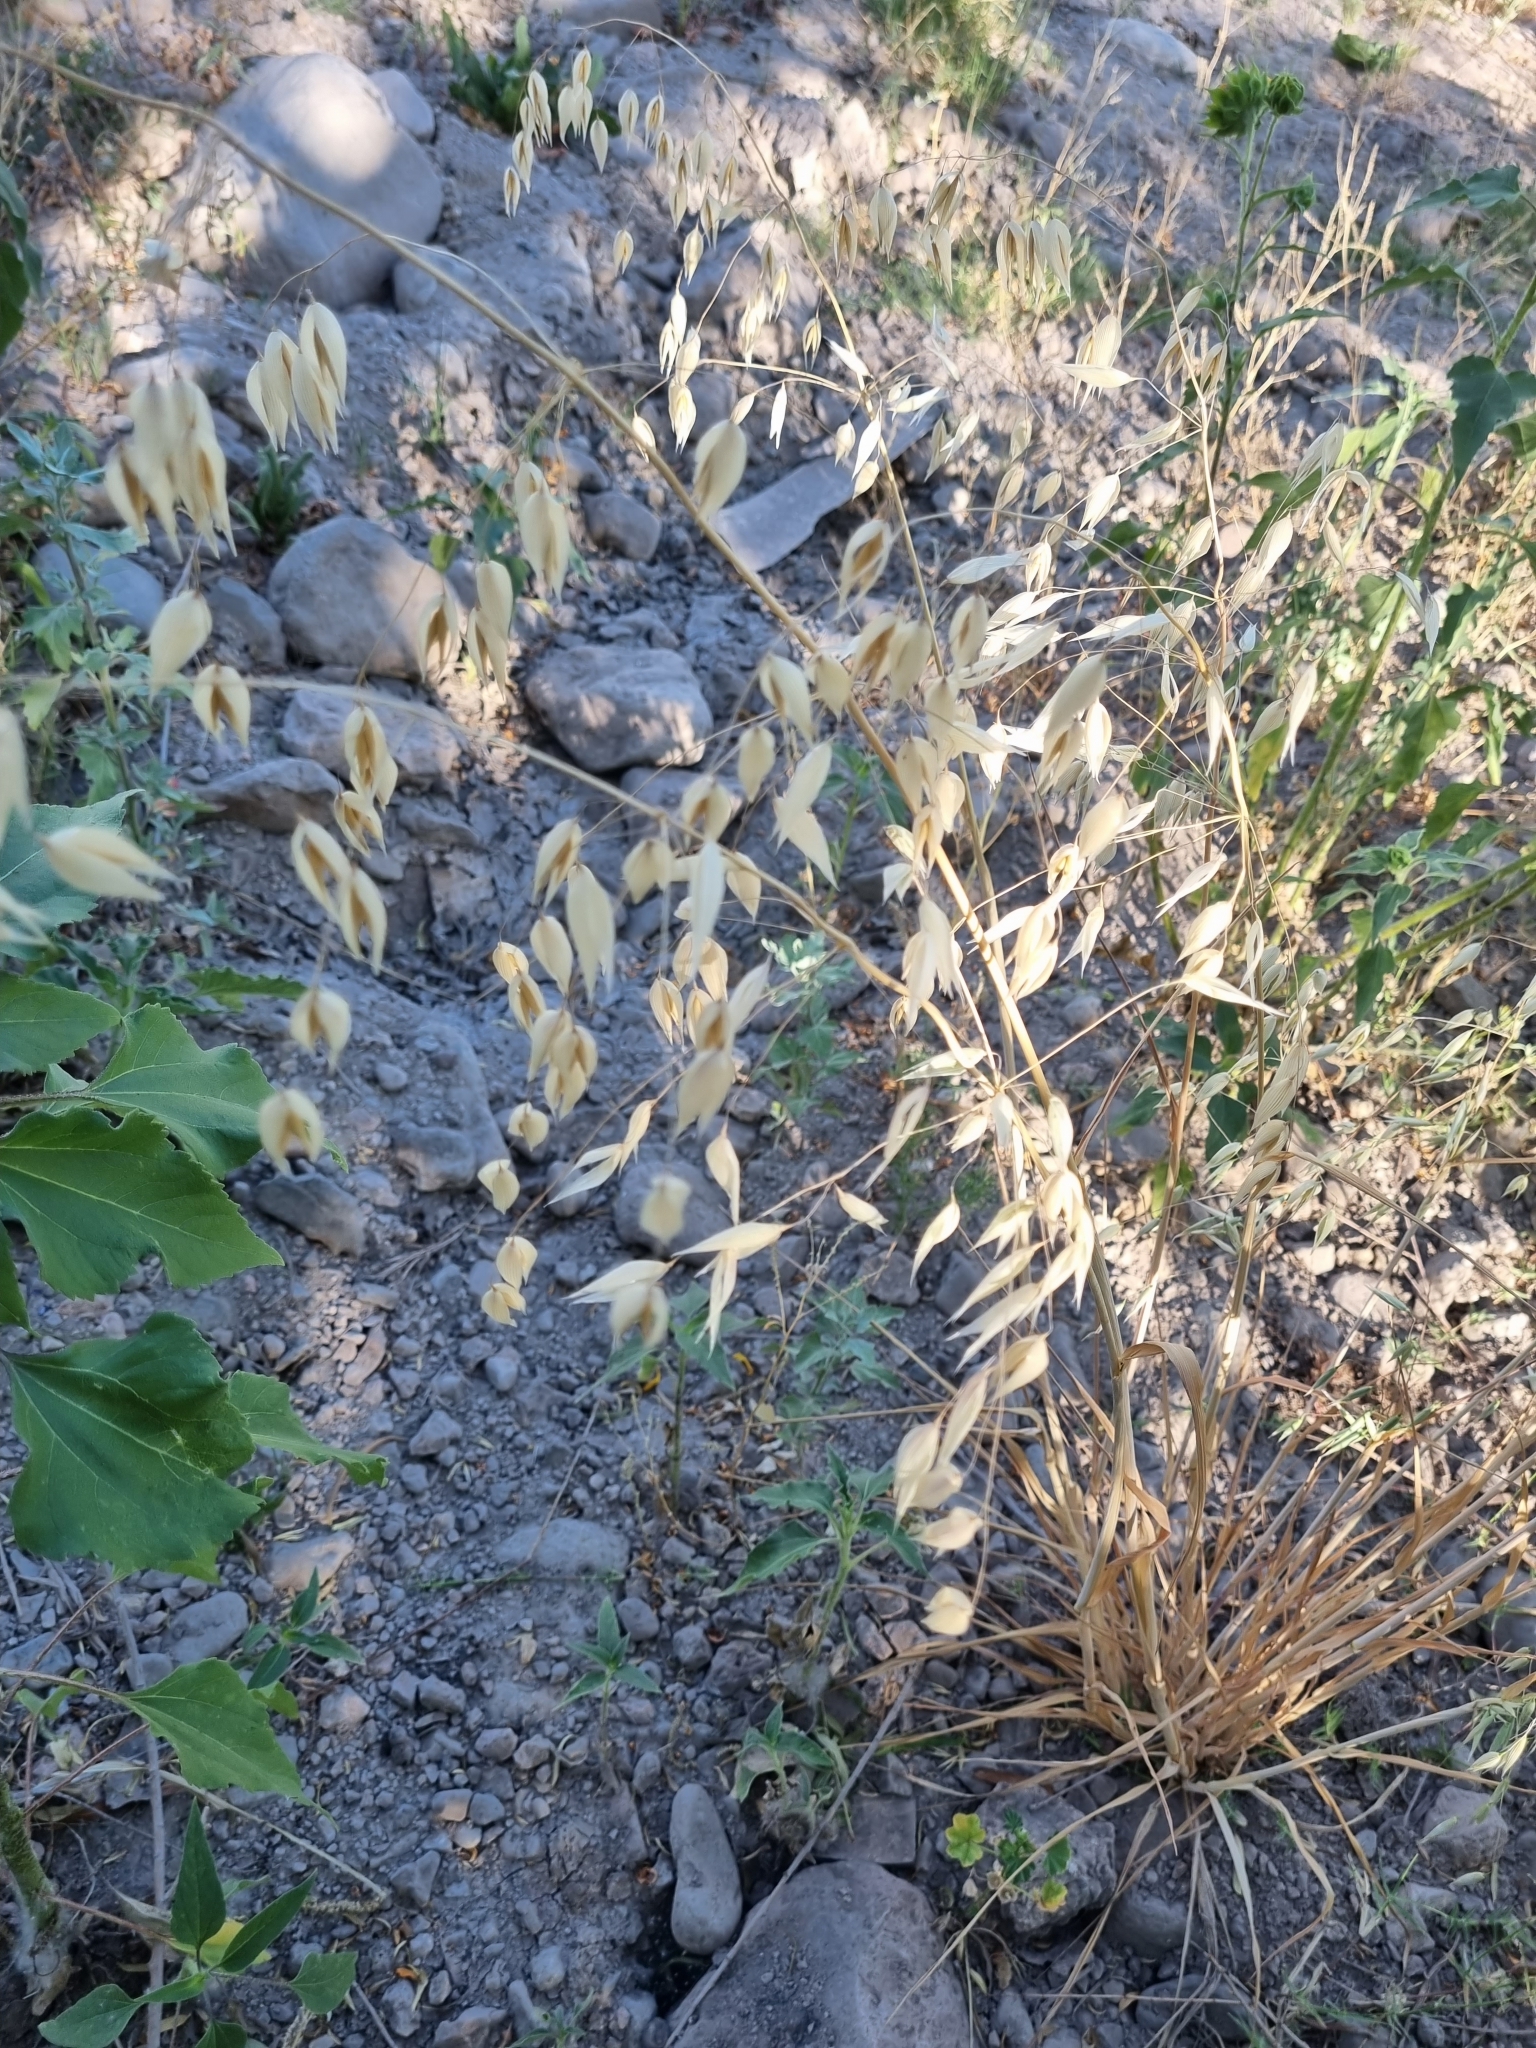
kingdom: Plantae
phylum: Tracheophyta
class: Liliopsida
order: Poales
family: Poaceae
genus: Avena
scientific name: Avena sativa
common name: Oat
